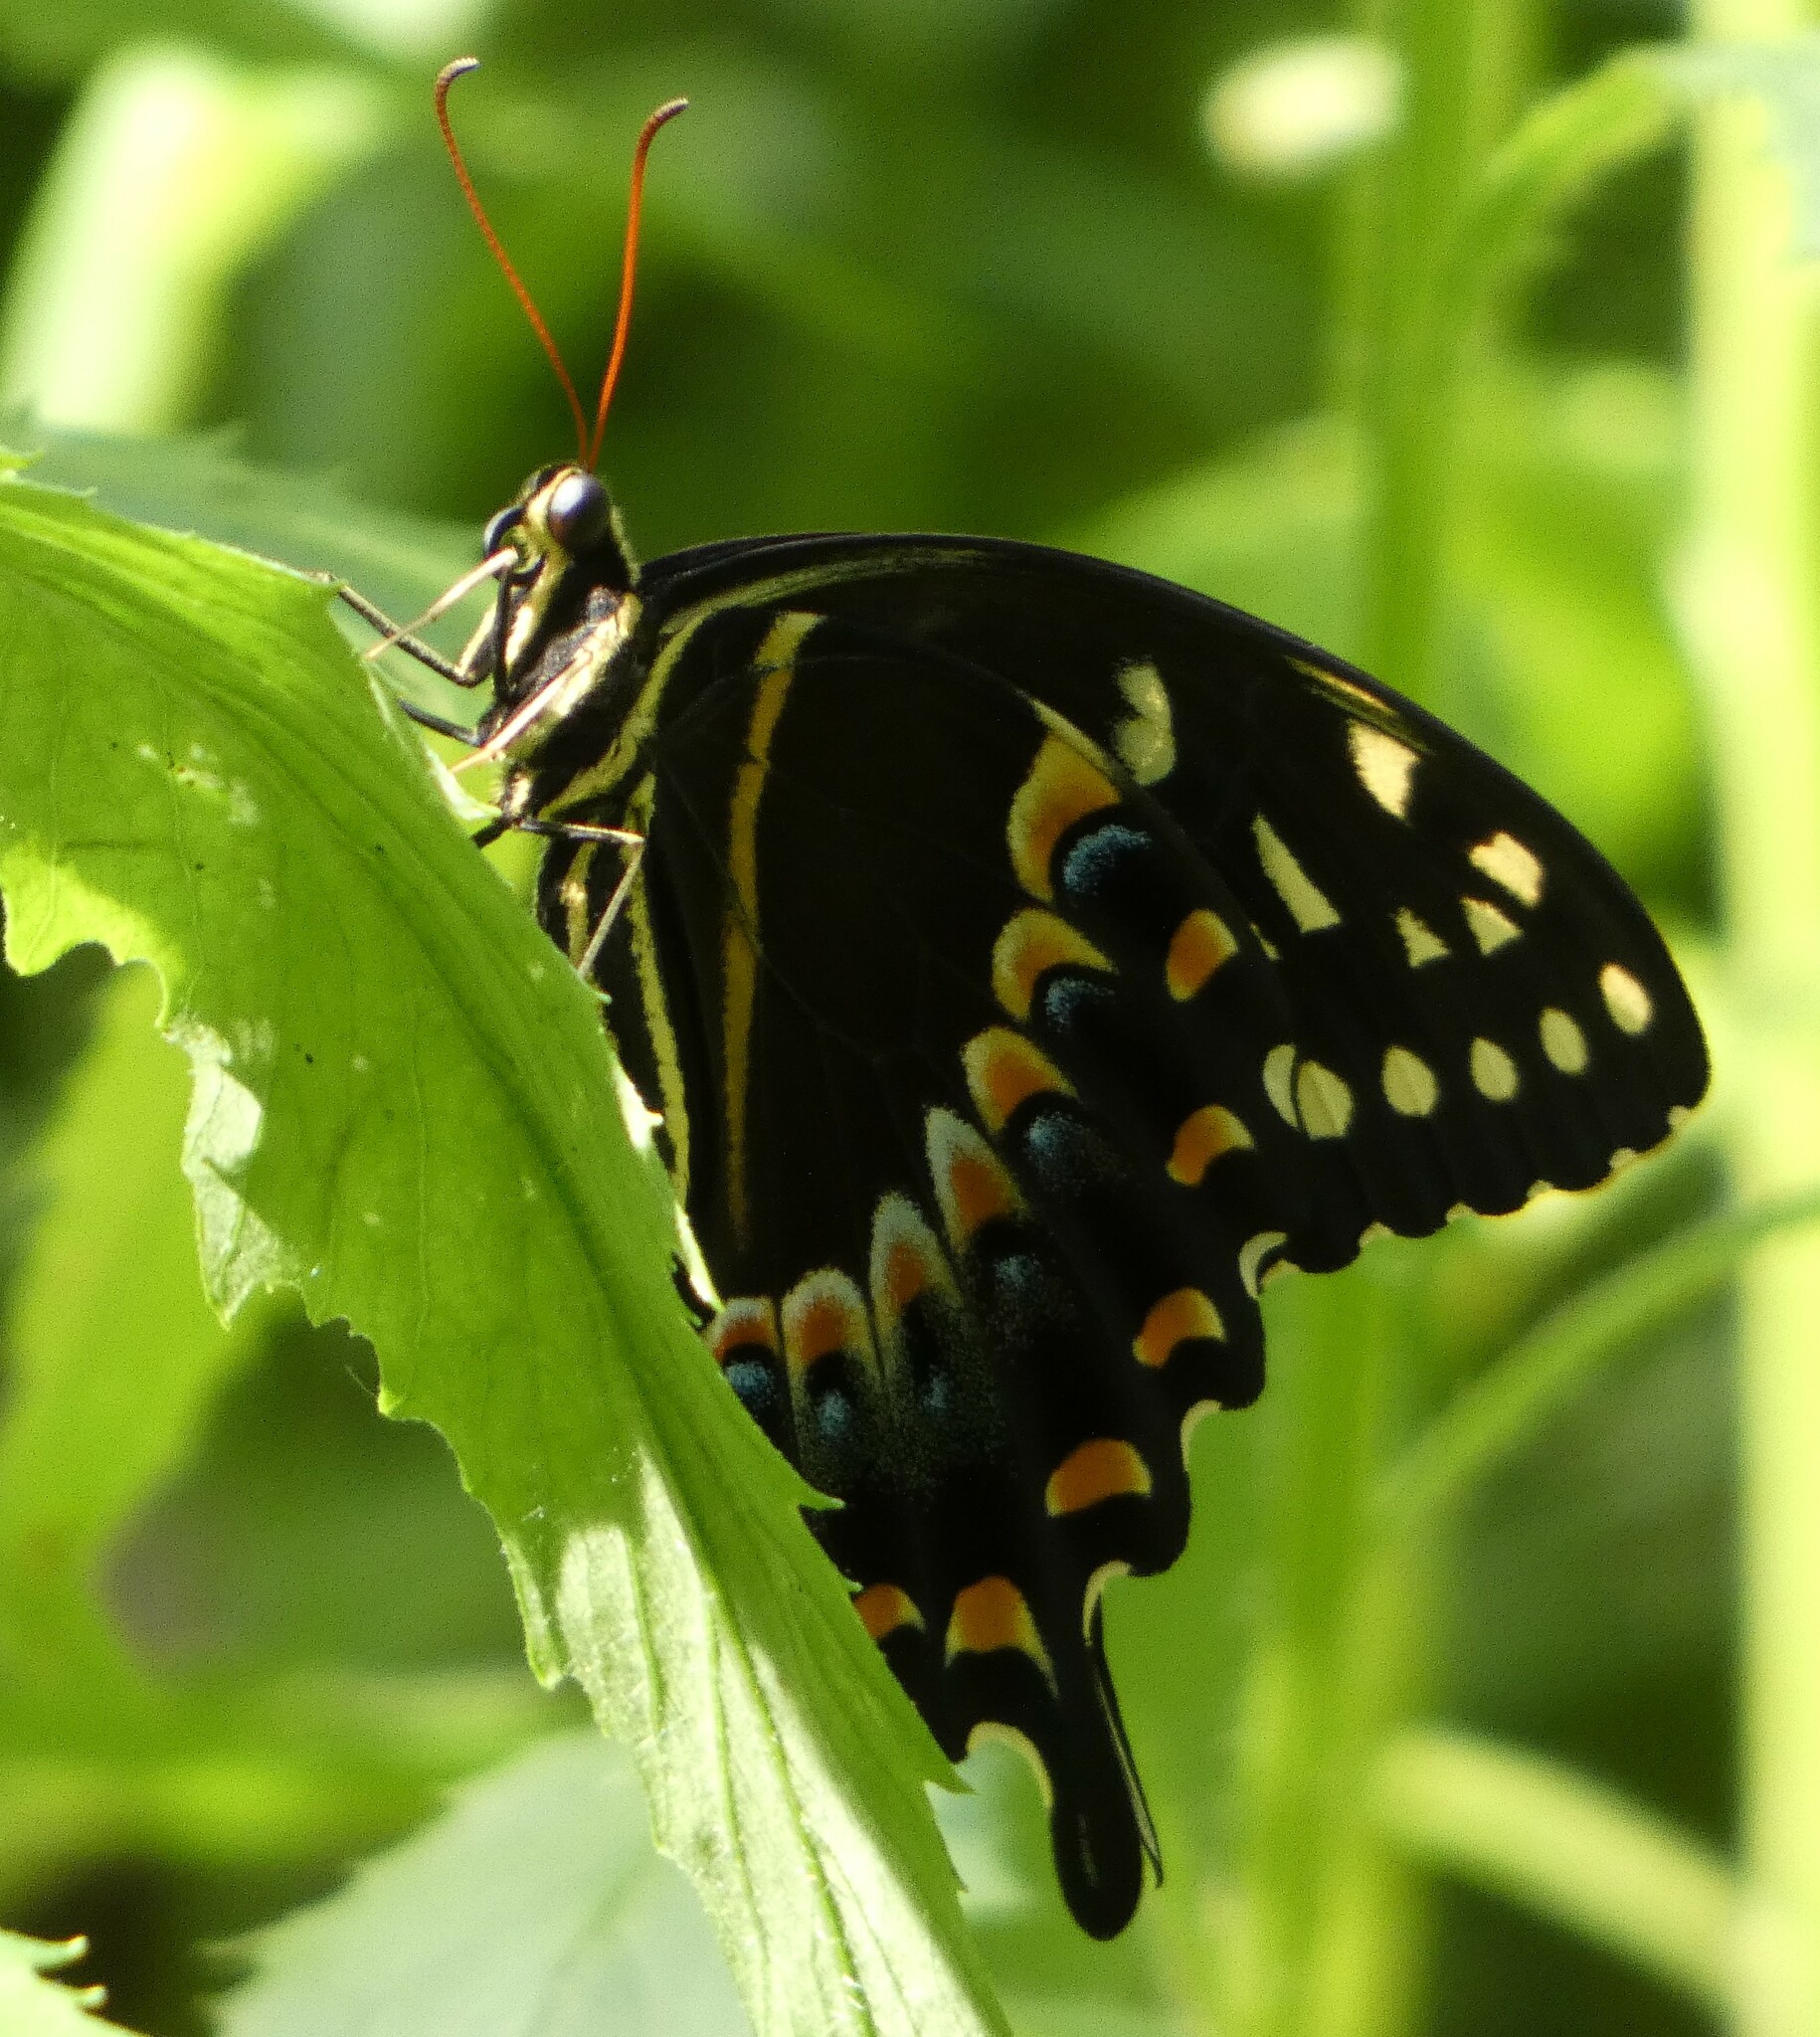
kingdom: Animalia
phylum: Arthropoda
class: Insecta
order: Lepidoptera
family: Papilionidae
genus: Papilio
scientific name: Papilio palamedes
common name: Palamedes swallowtail
